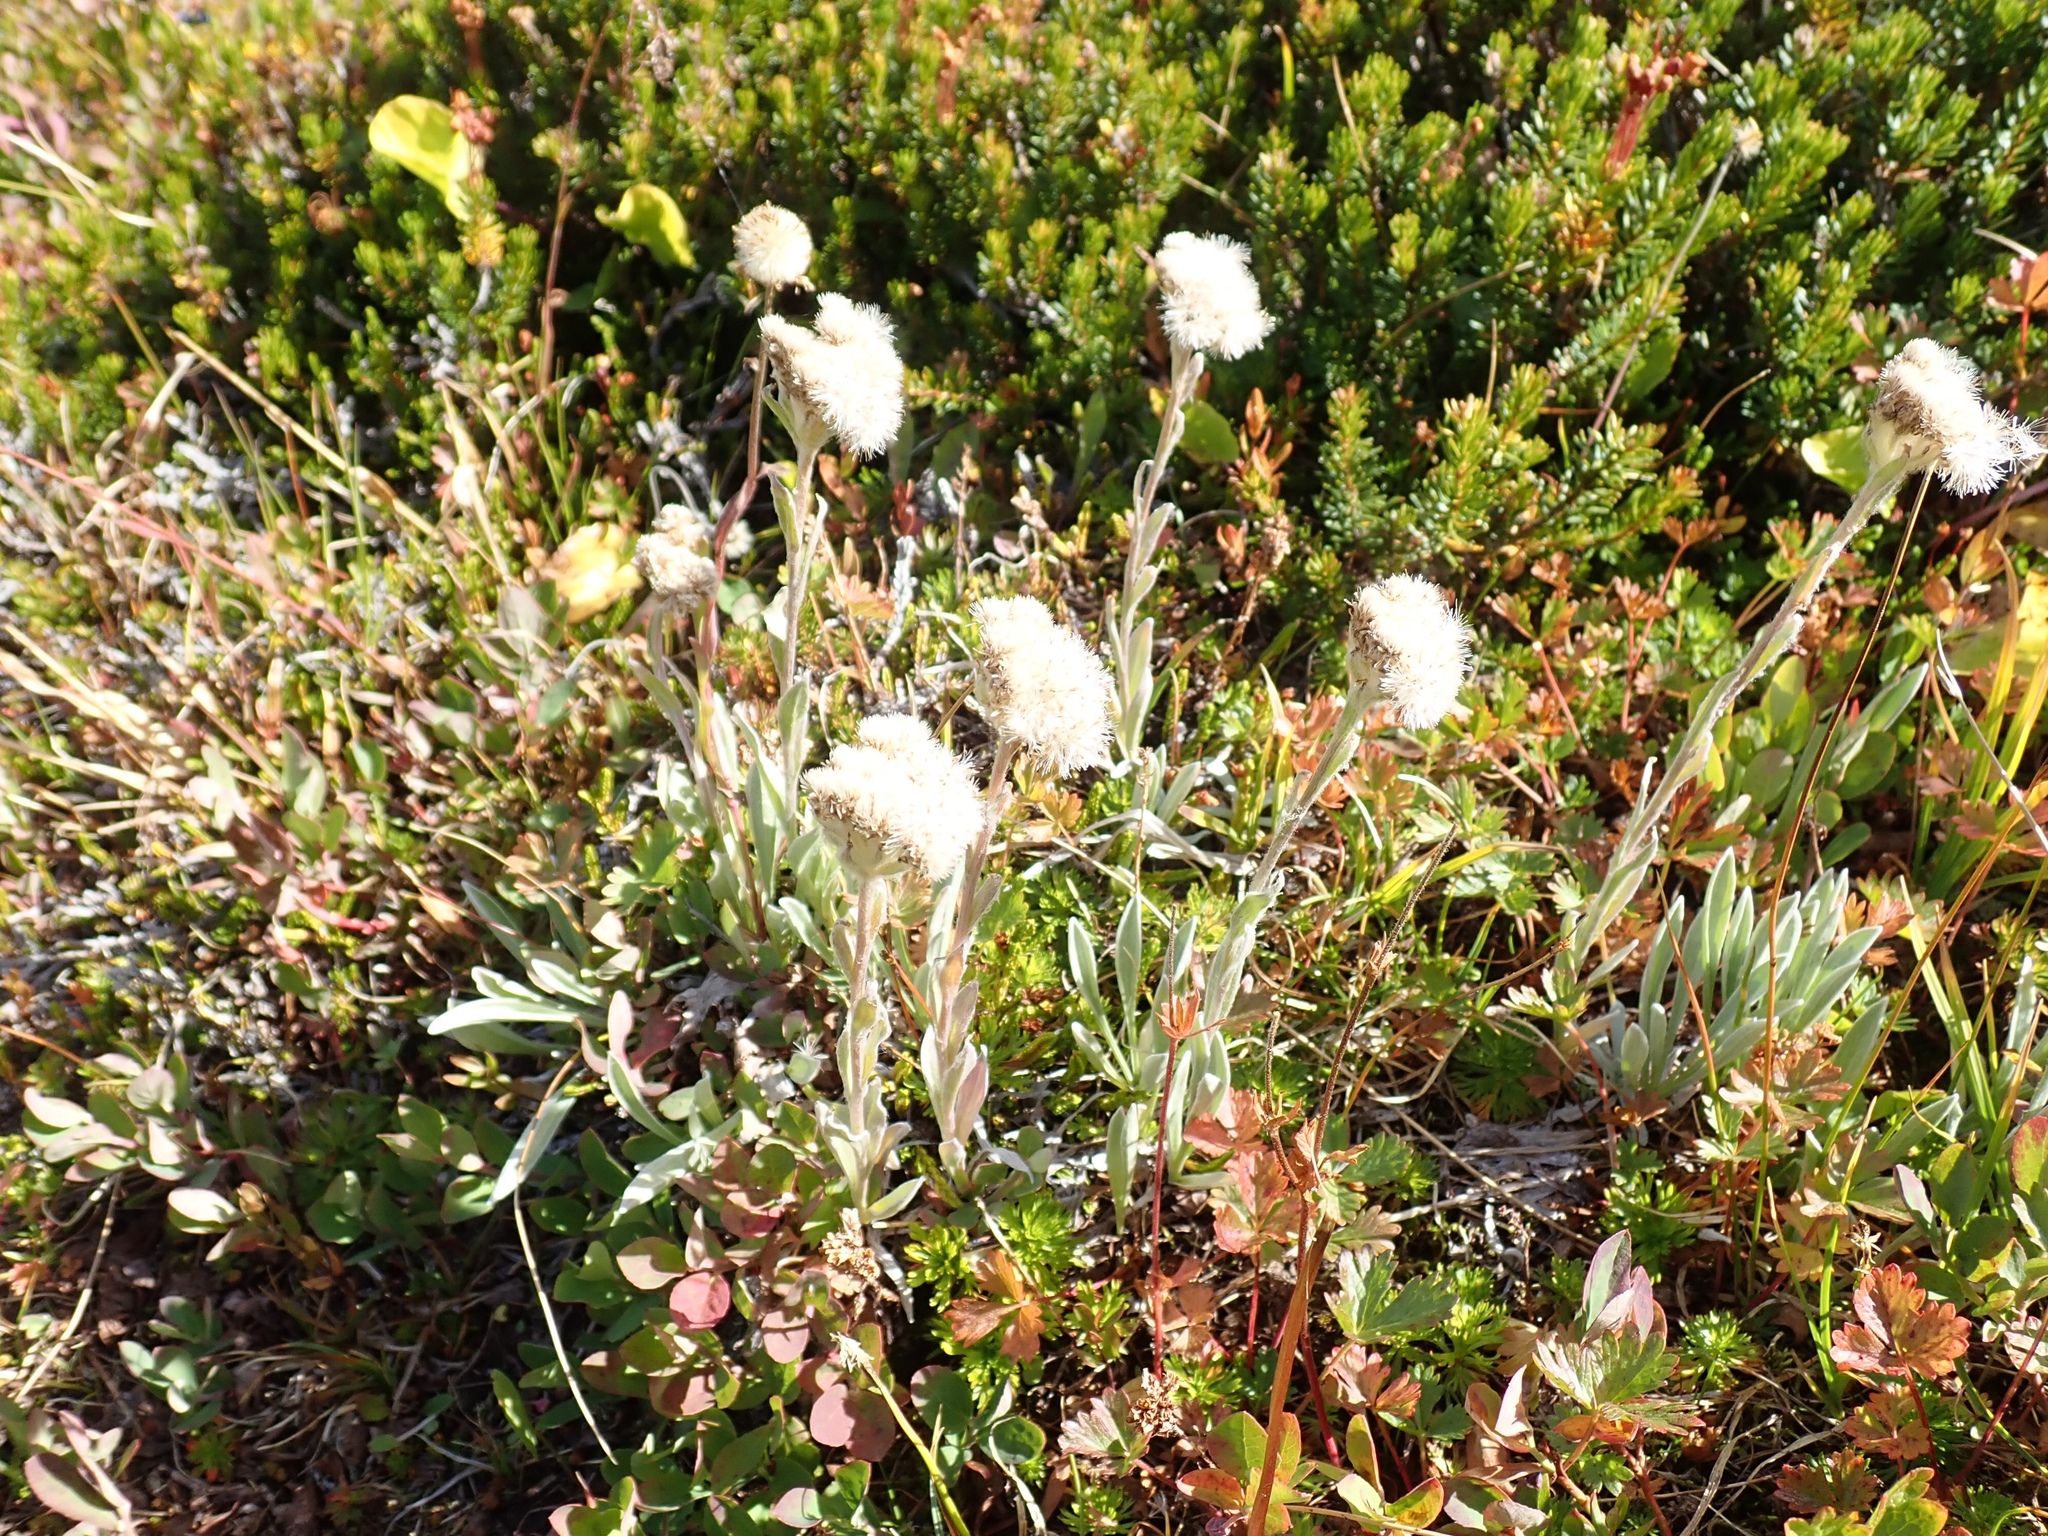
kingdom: Plantae
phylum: Tracheophyta
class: Magnoliopsida
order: Asterales
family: Asteraceae
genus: Antennaria
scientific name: Antennaria lanata
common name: Woolly pussytoes
